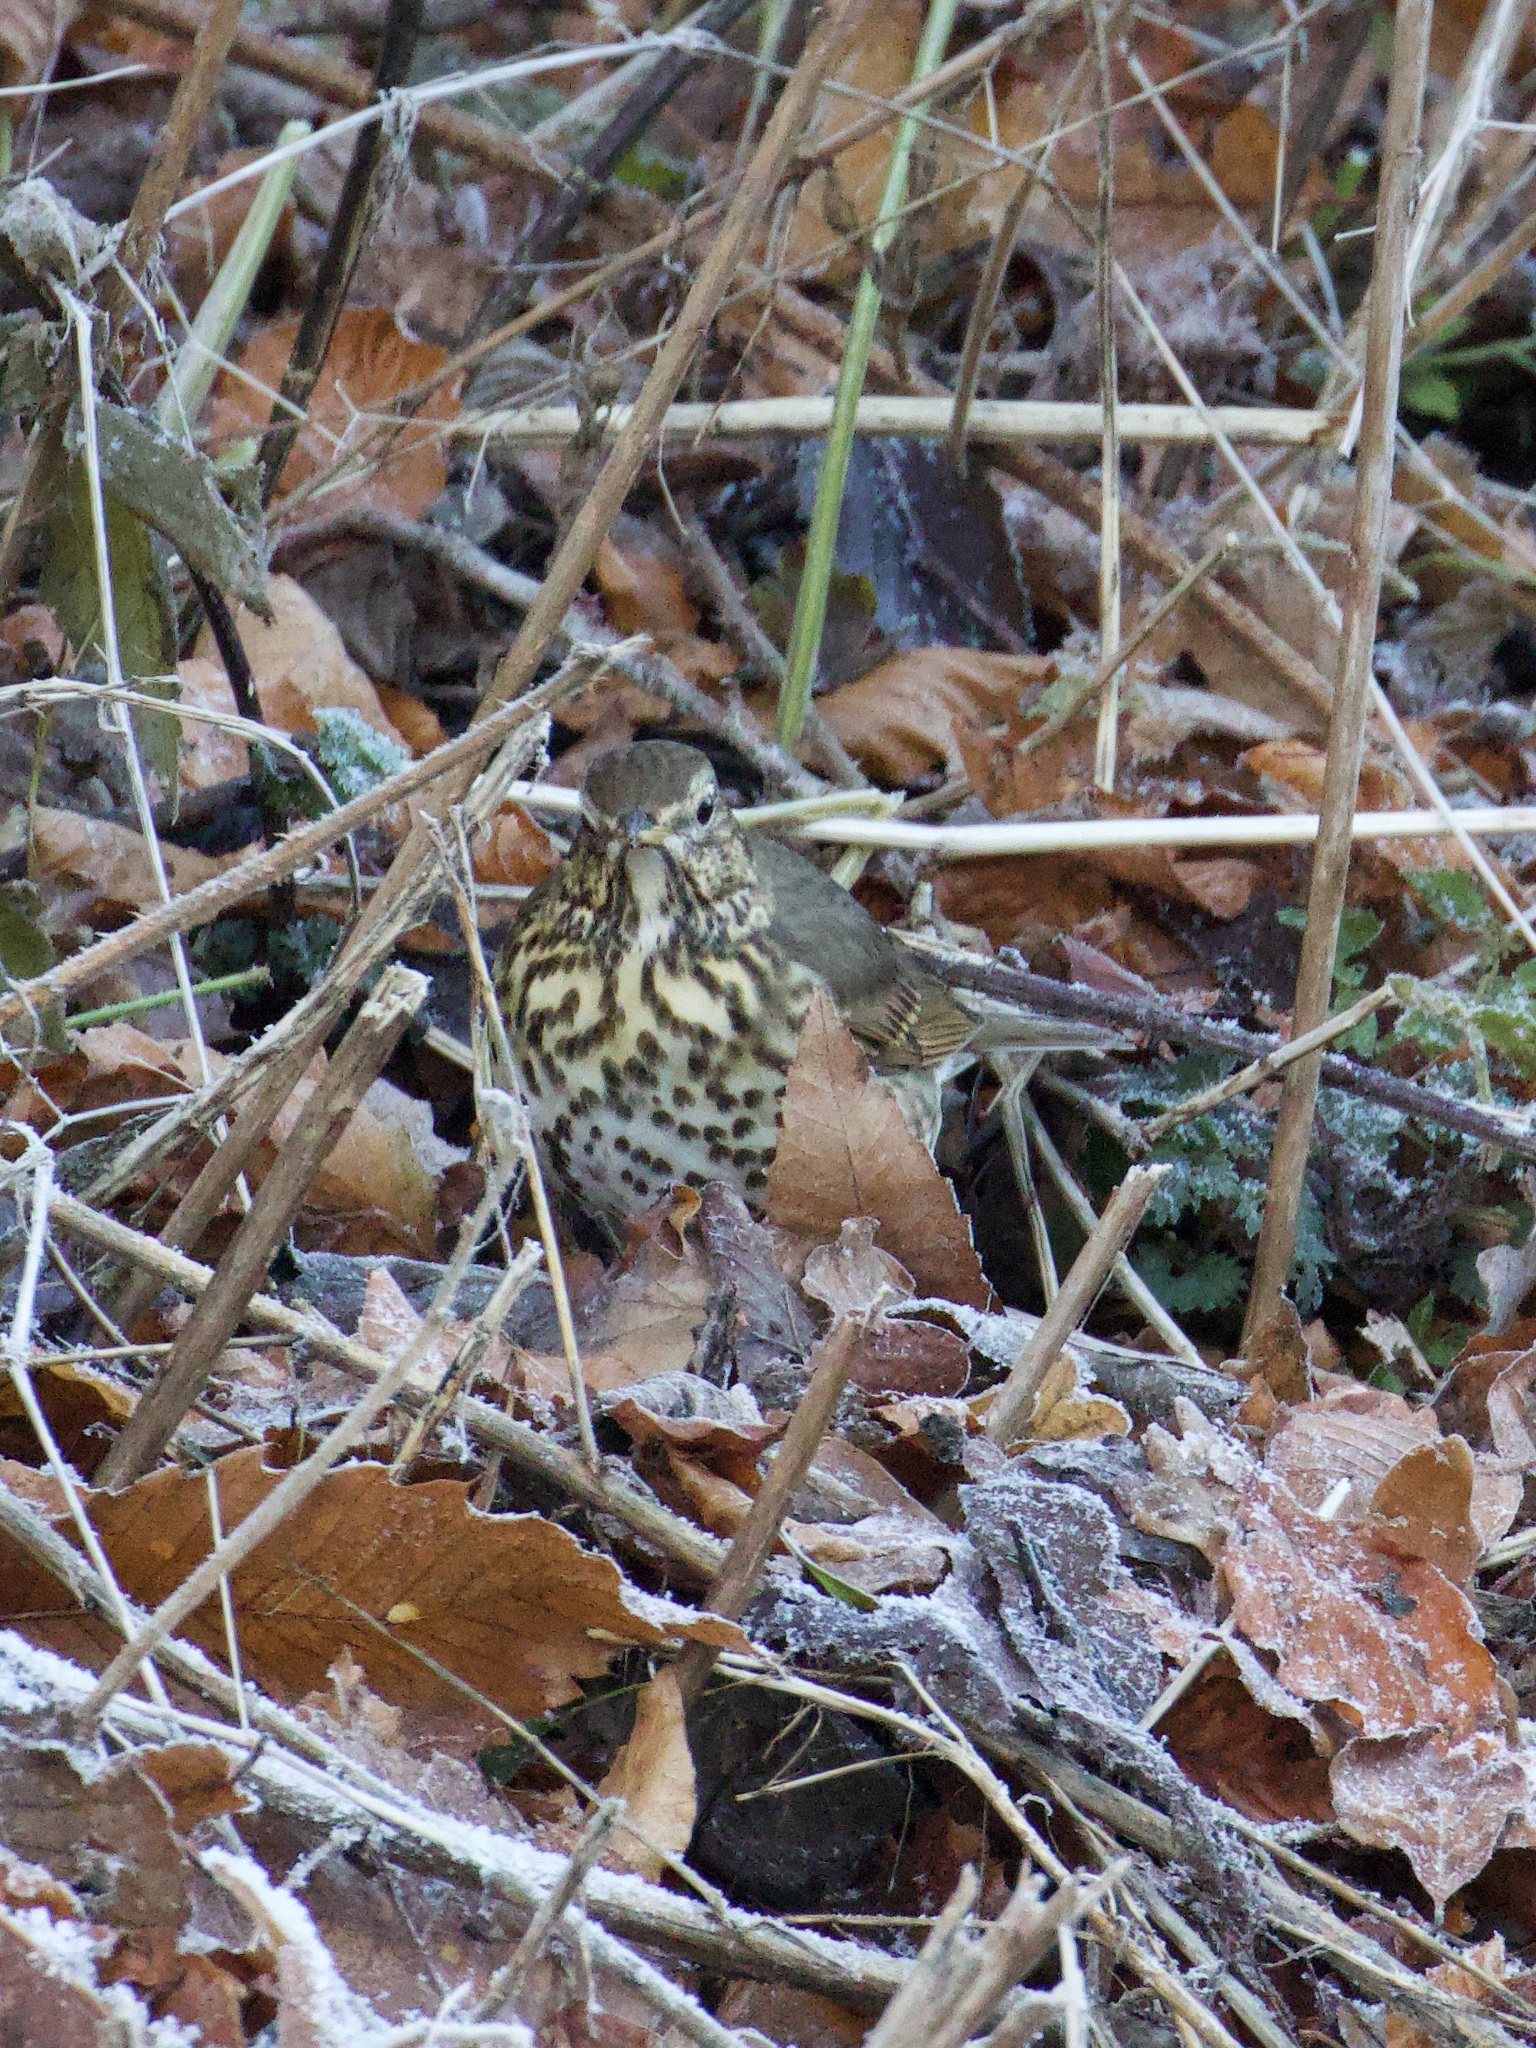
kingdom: Animalia
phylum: Chordata
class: Aves
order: Passeriformes
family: Turdidae
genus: Turdus
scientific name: Turdus philomelos
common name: Song thrush
